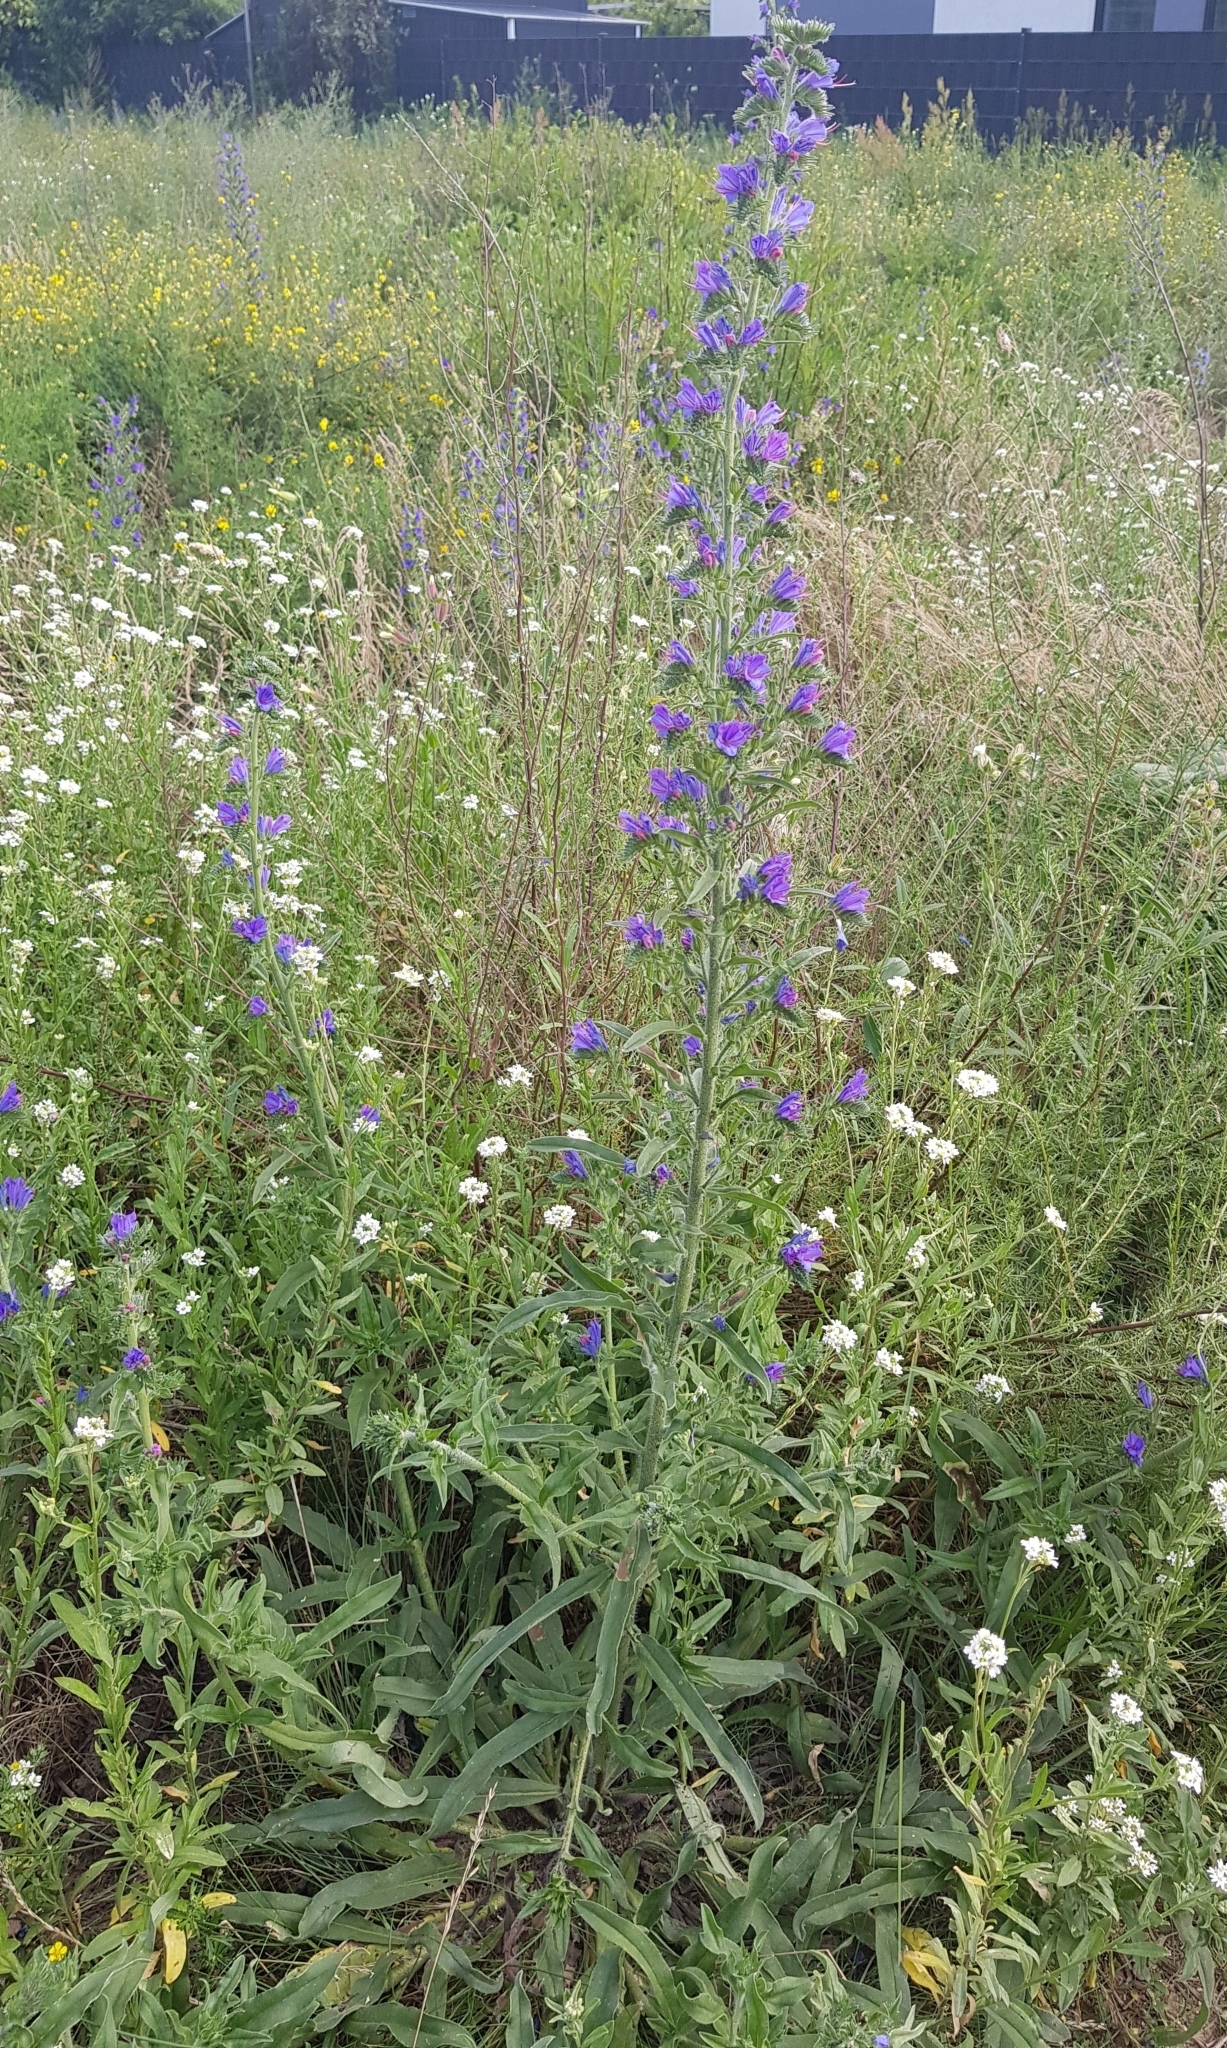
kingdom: Plantae
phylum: Tracheophyta
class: Magnoliopsida
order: Boraginales
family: Boraginaceae
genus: Echium
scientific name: Echium vulgare
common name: Common viper's bugloss
